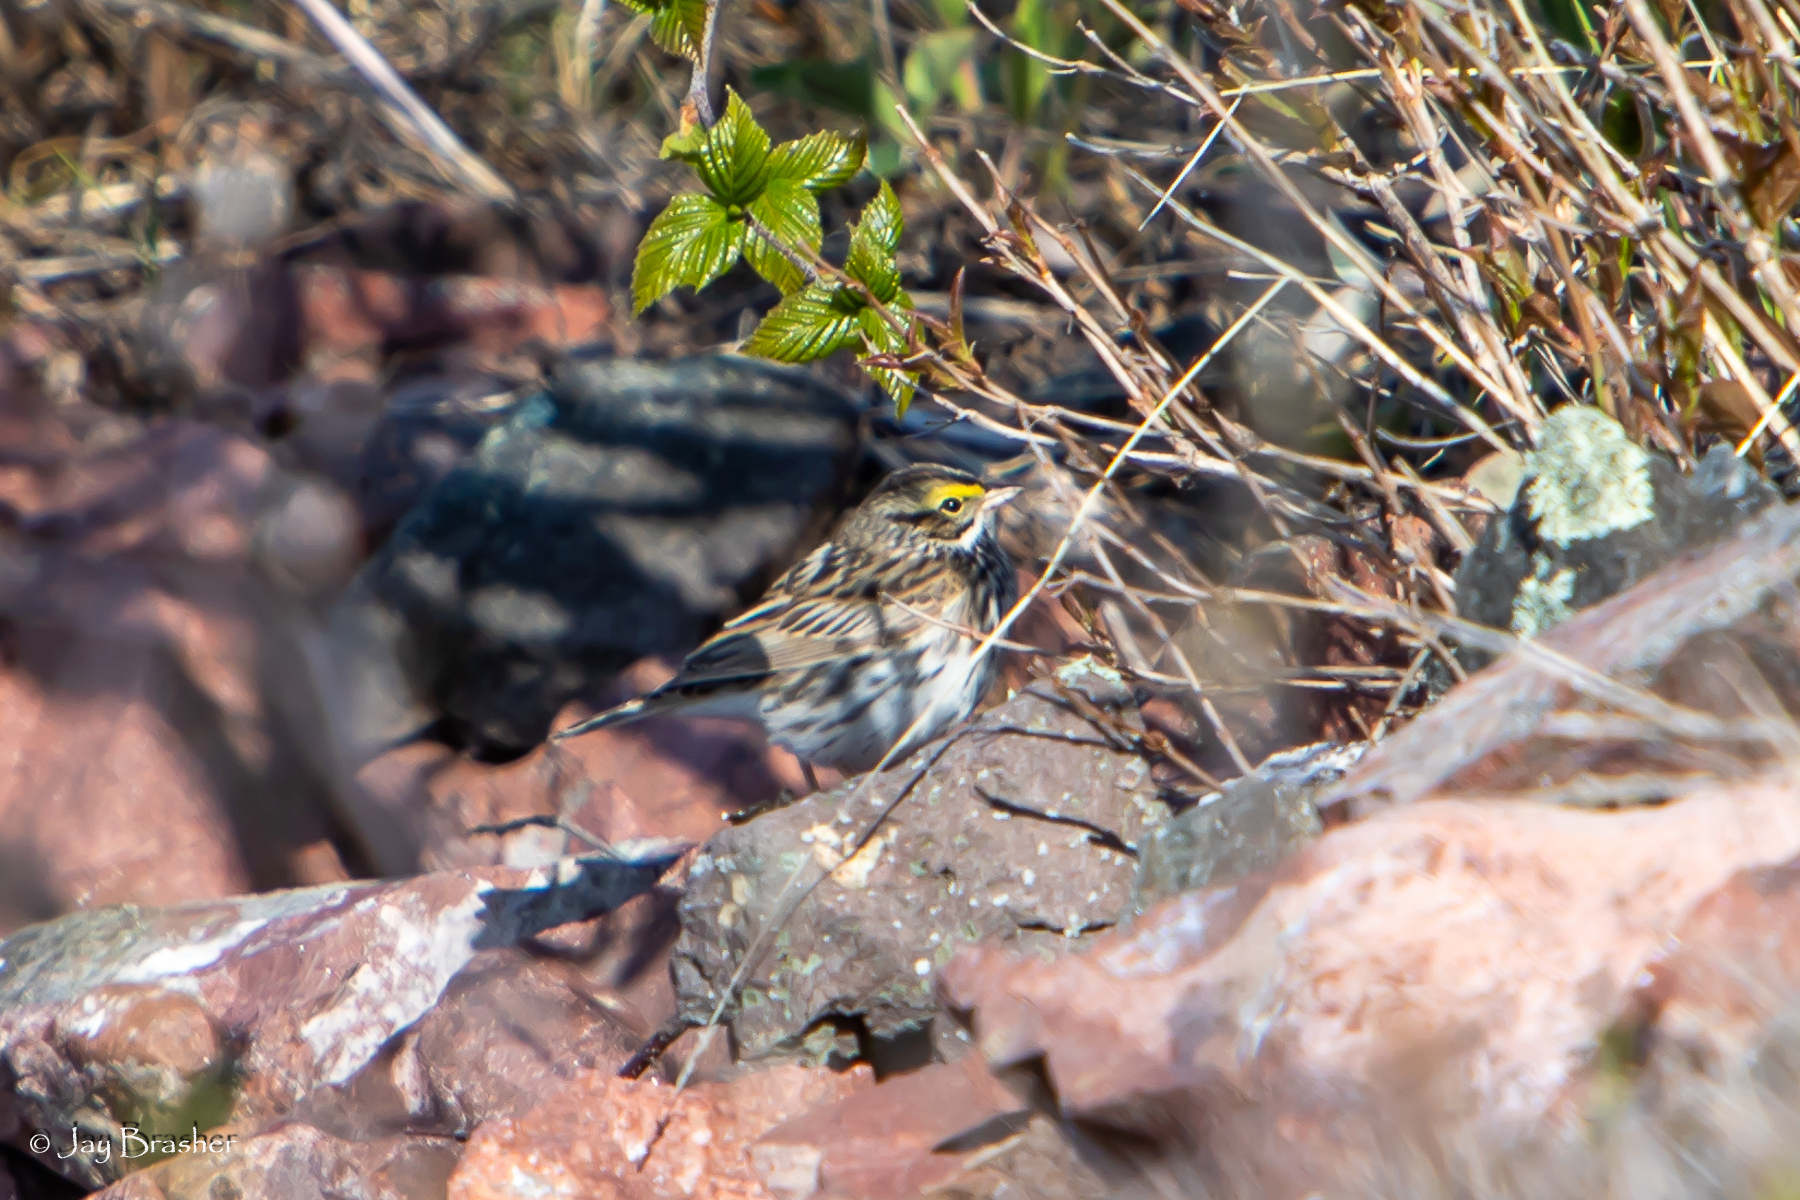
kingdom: Animalia
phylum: Chordata
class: Aves
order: Passeriformes
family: Passerellidae
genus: Passerculus
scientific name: Passerculus sandwichensis
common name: Savannah sparrow
